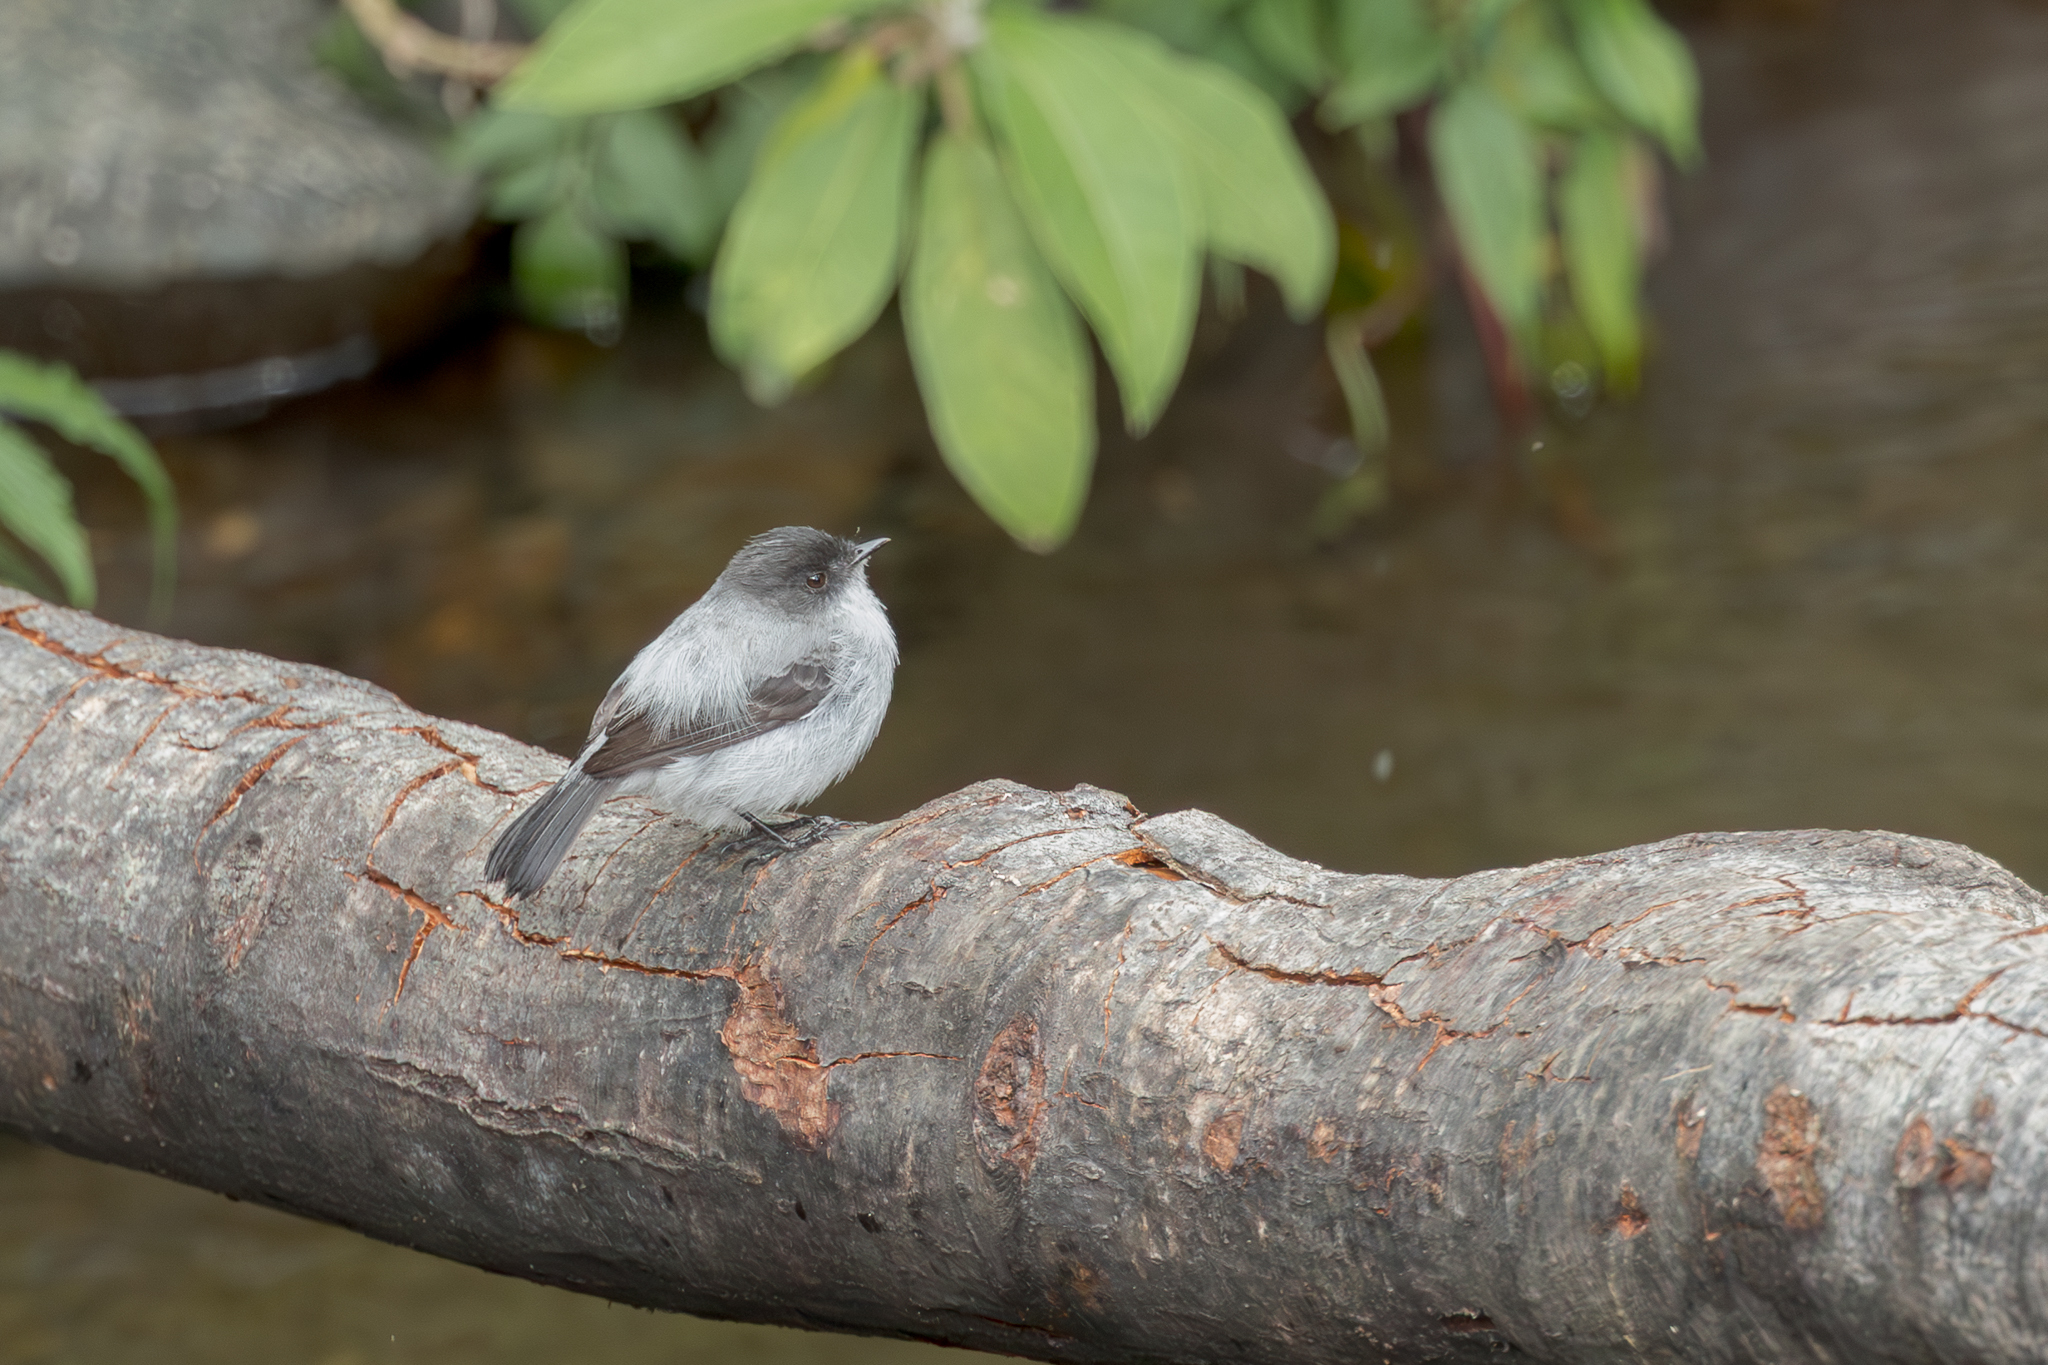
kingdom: Animalia
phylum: Chordata
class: Aves
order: Passeriformes
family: Tyrannidae
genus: Serpophaga
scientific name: Serpophaga cinerea
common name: Torrent tyrannulet
